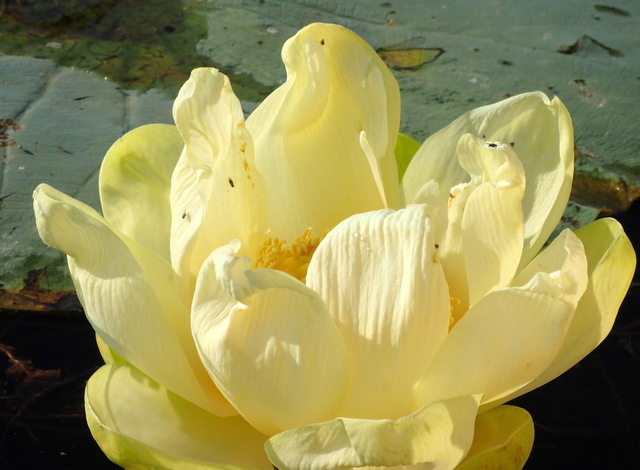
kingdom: Plantae
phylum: Tracheophyta
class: Magnoliopsida
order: Proteales
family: Nelumbonaceae
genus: Nelumbo
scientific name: Nelumbo lutea
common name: American lotus
